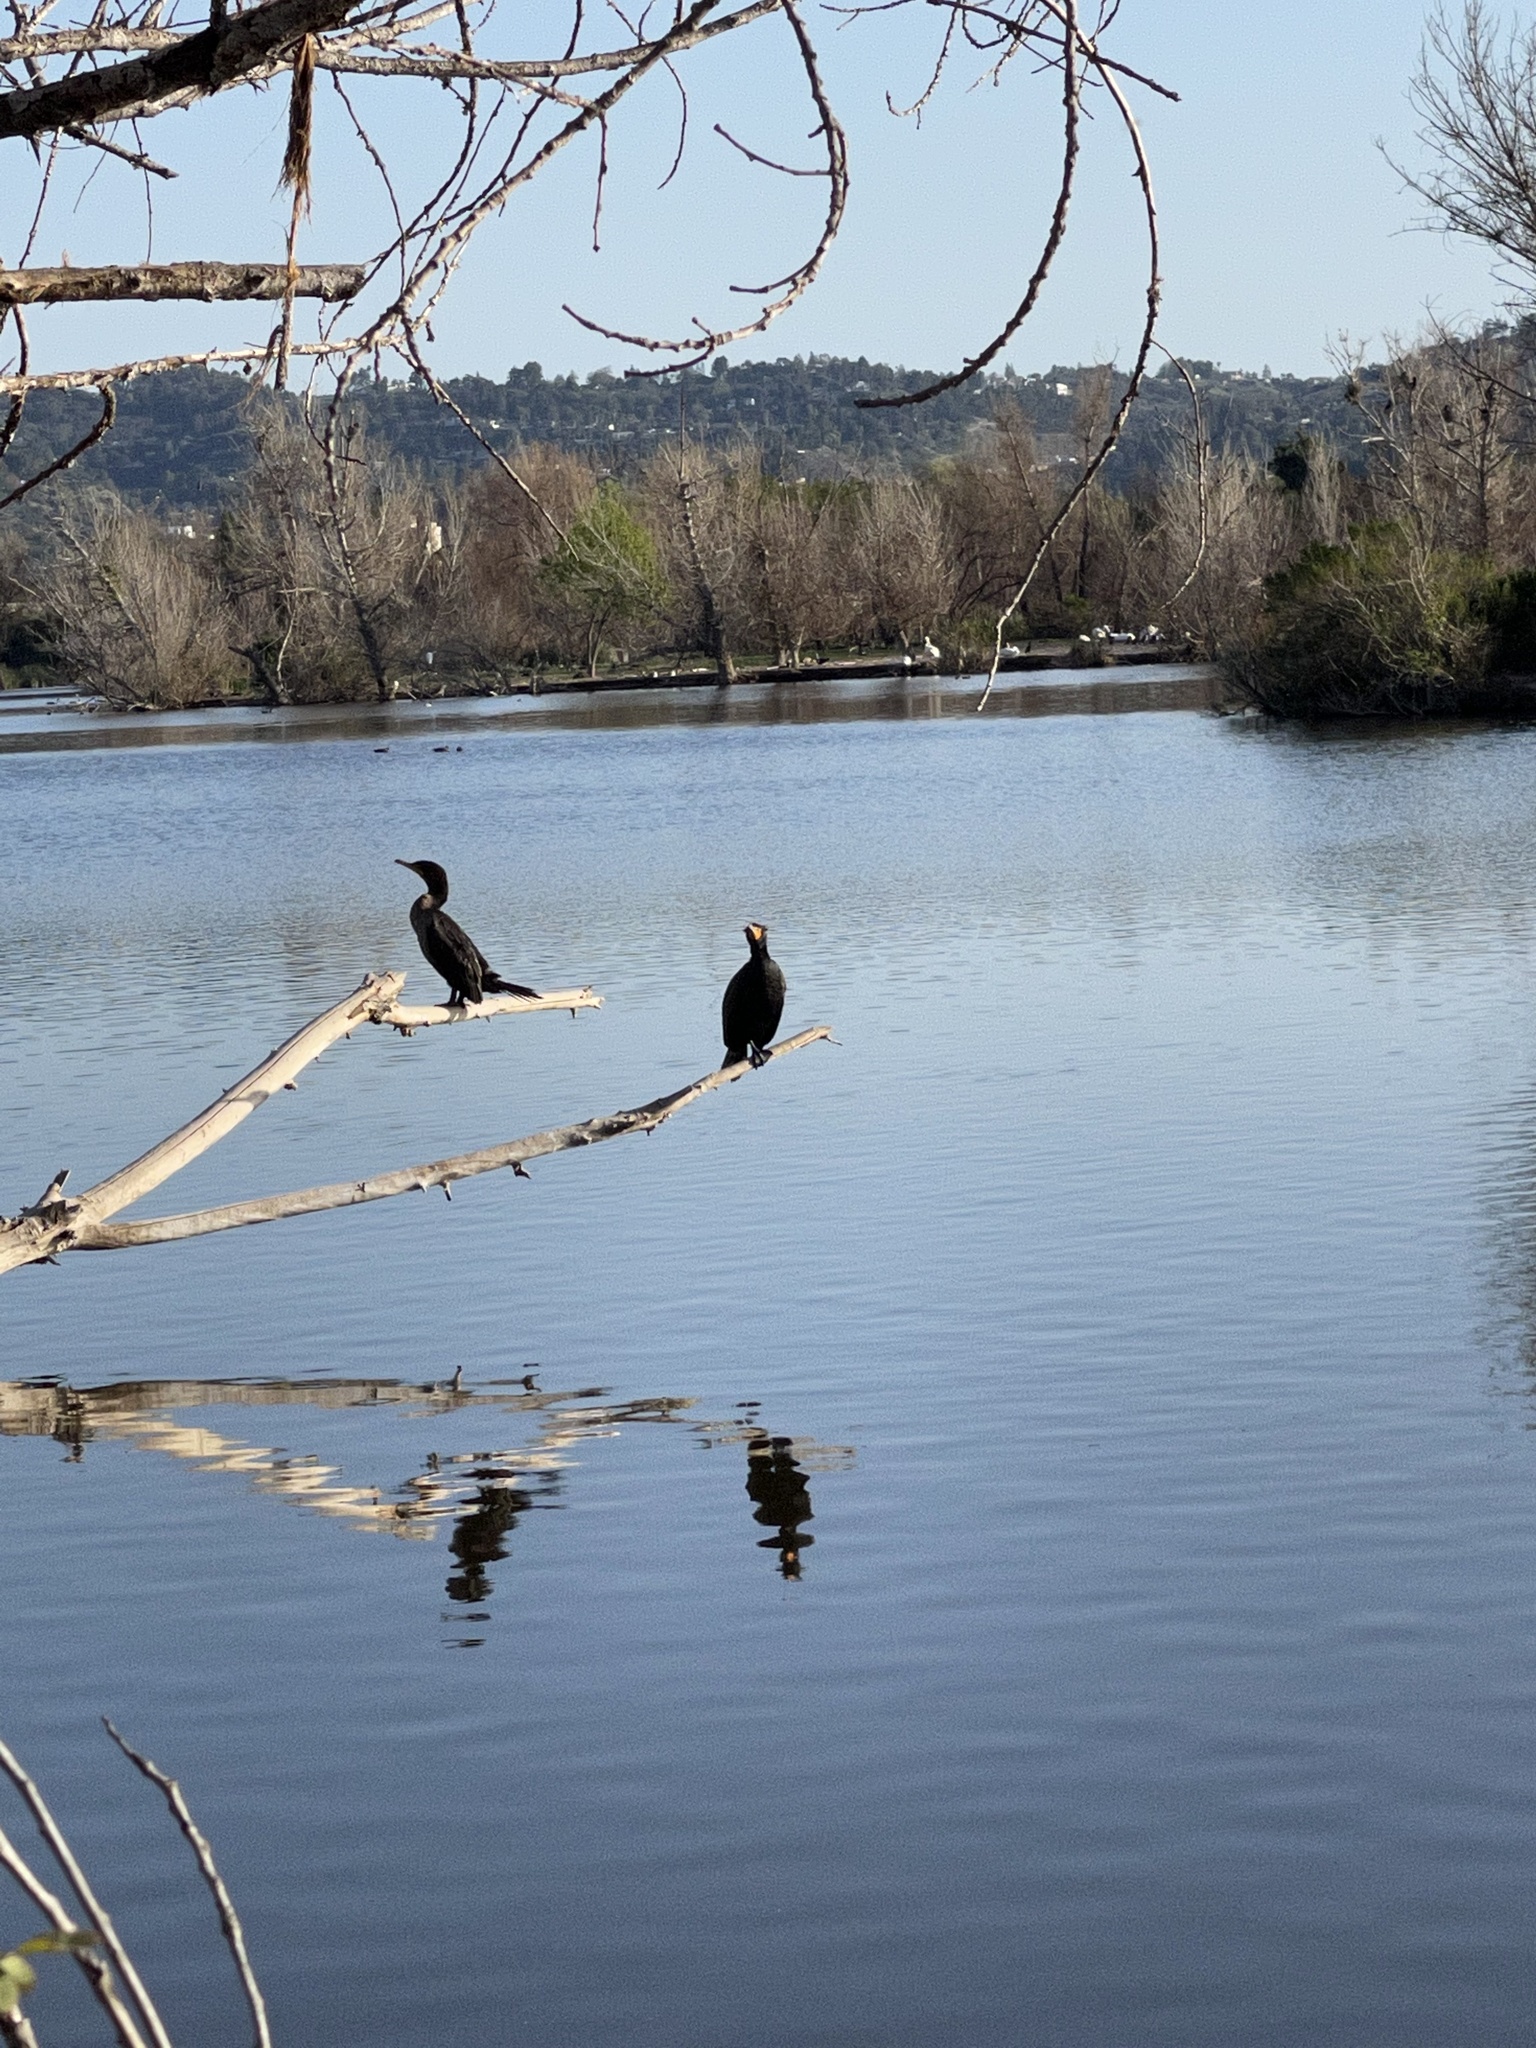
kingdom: Animalia
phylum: Chordata
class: Aves
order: Suliformes
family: Phalacrocoracidae
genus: Phalacrocorax
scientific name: Phalacrocorax auritus
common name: Double-crested cormorant
